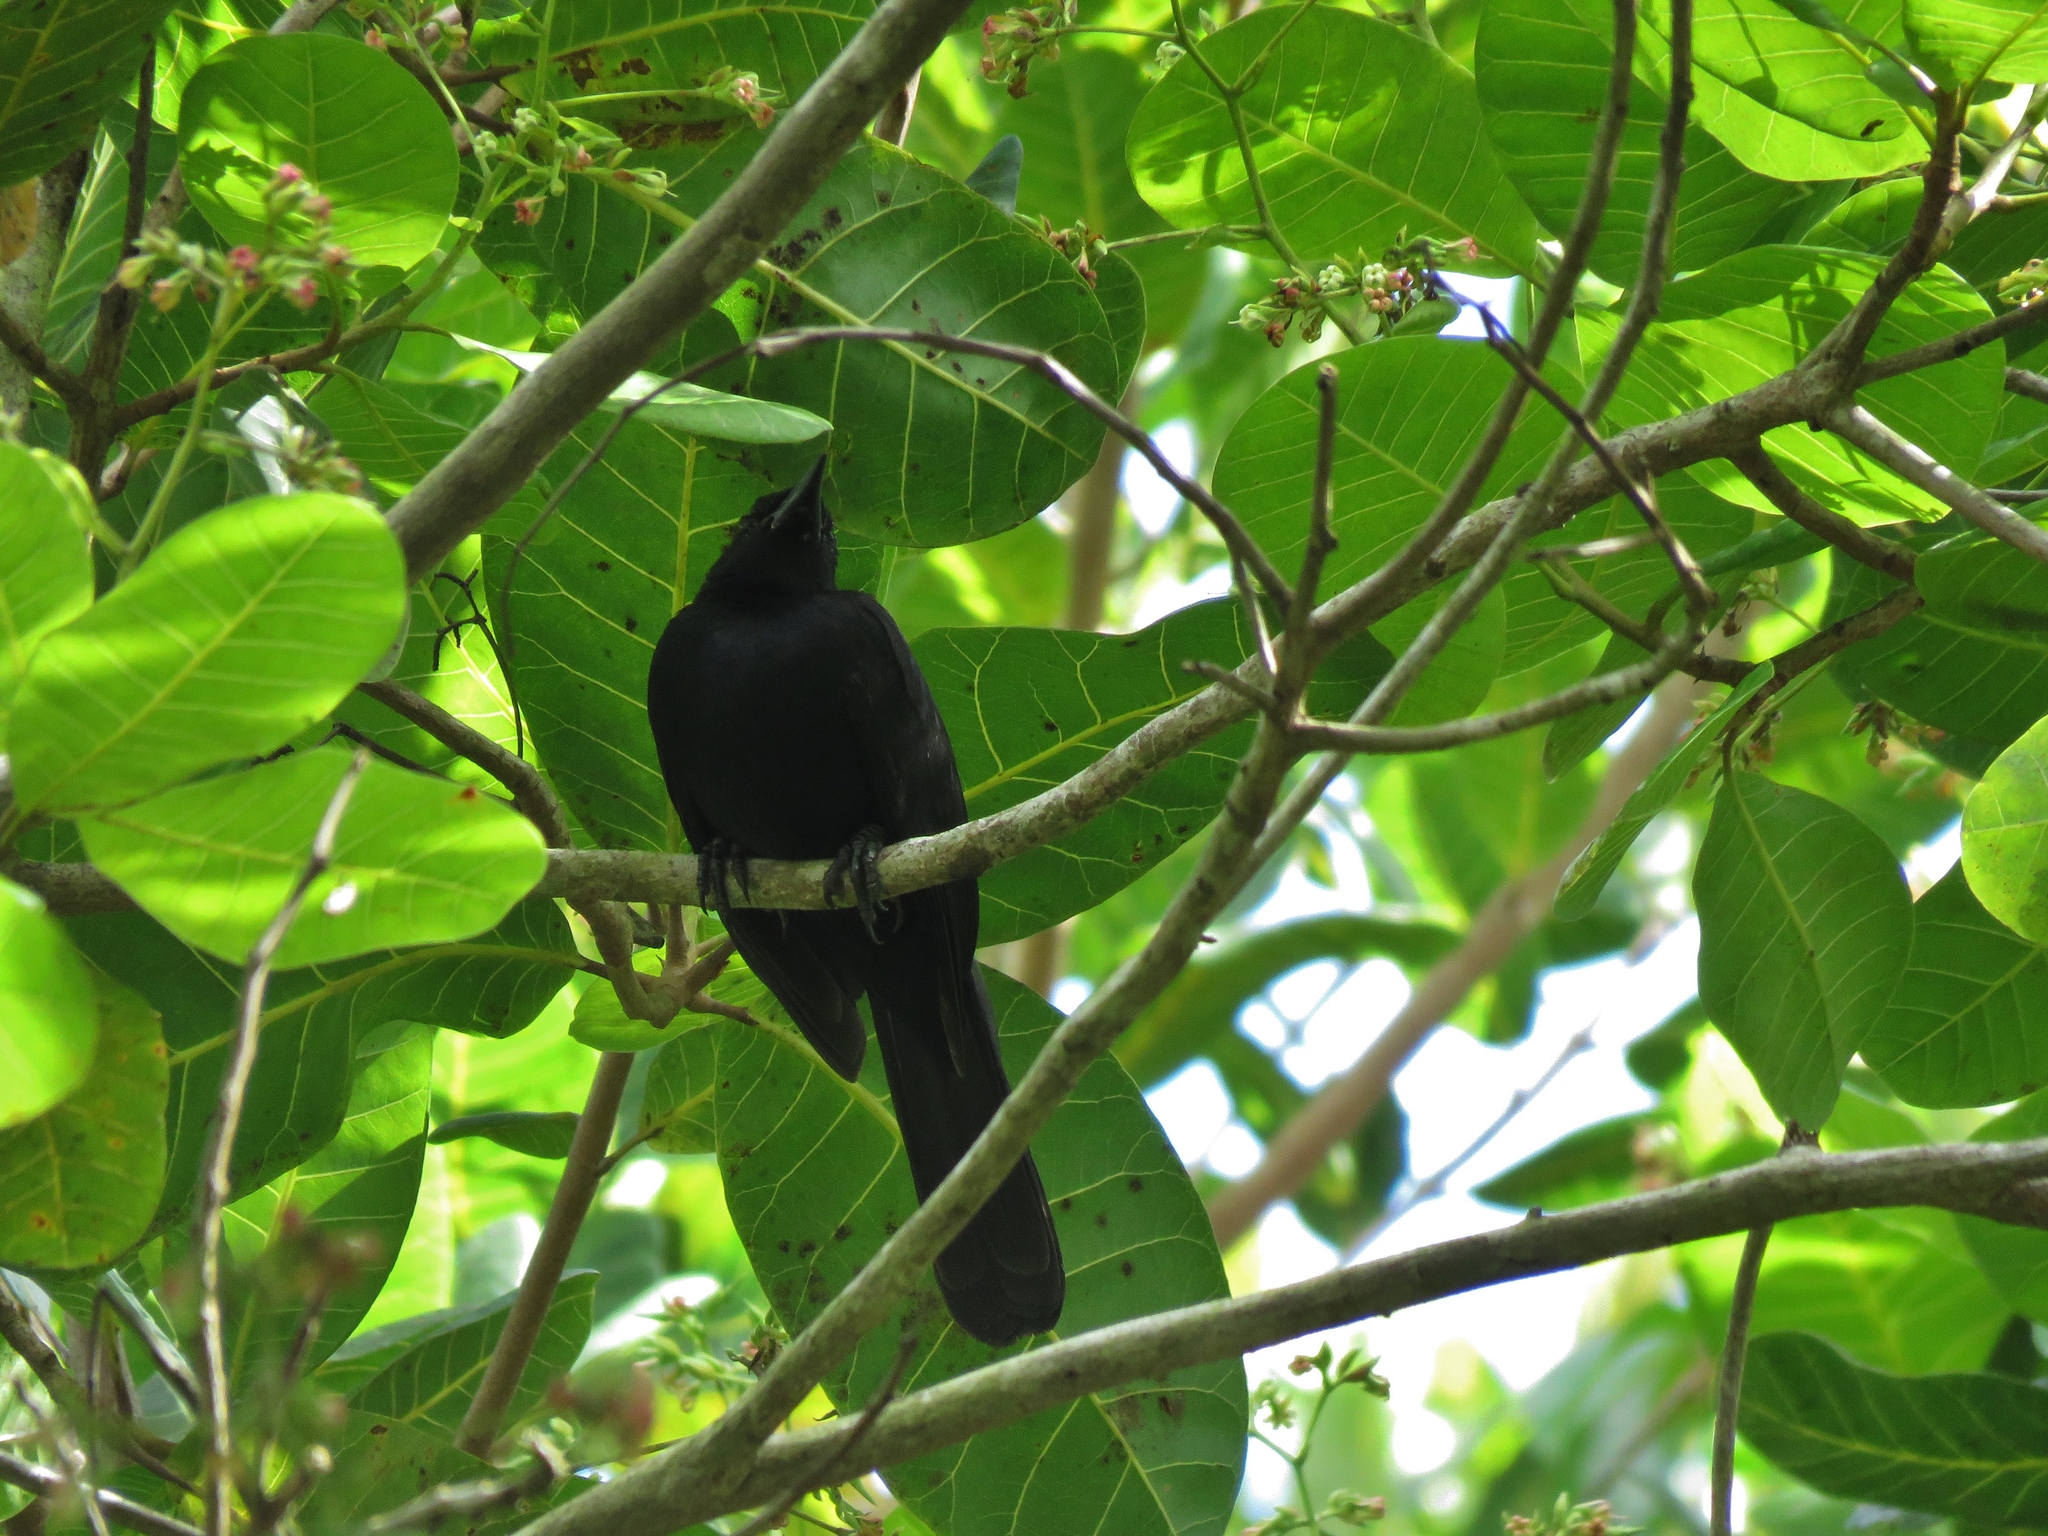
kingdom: Animalia
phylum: Chordata
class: Aves
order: Passeriformes
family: Icteridae
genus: Dives
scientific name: Dives dives
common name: Melodious blackbird
